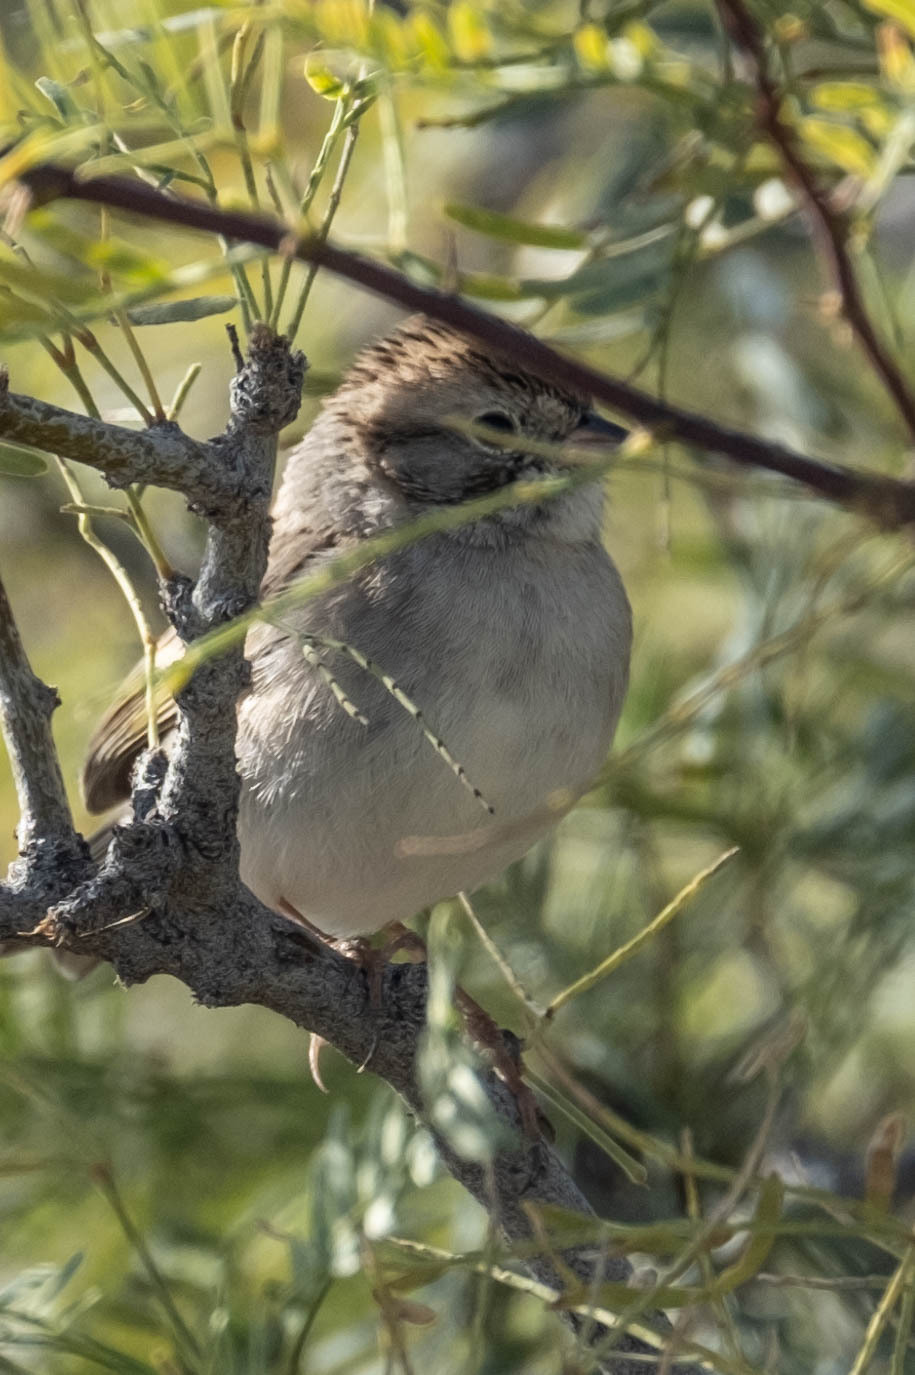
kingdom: Animalia
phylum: Chordata
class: Aves
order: Passeriformes
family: Passerellidae
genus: Spizella
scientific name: Spizella breweri
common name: Brewer's sparrow
